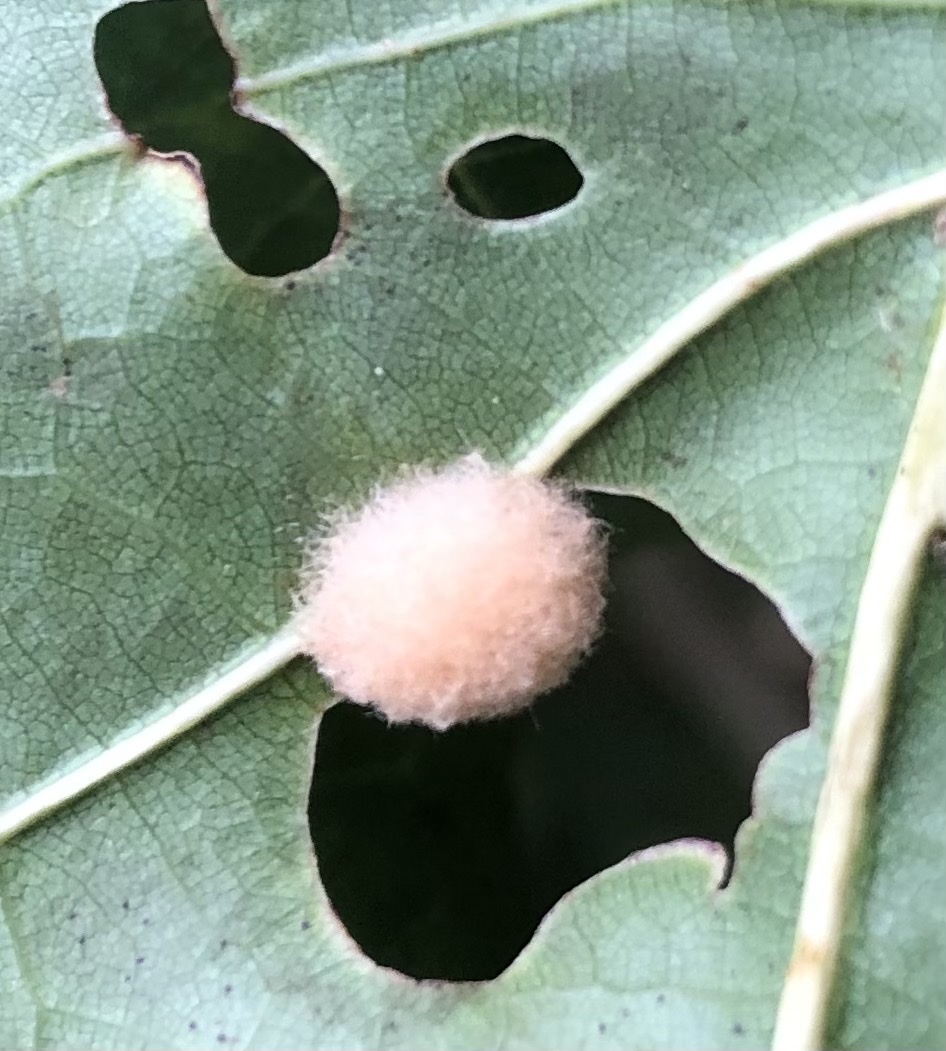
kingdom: Animalia
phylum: Arthropoda
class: Insecta
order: Hymenoptera
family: Cynipidae
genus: Callirhytis
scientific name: Callirhytis
